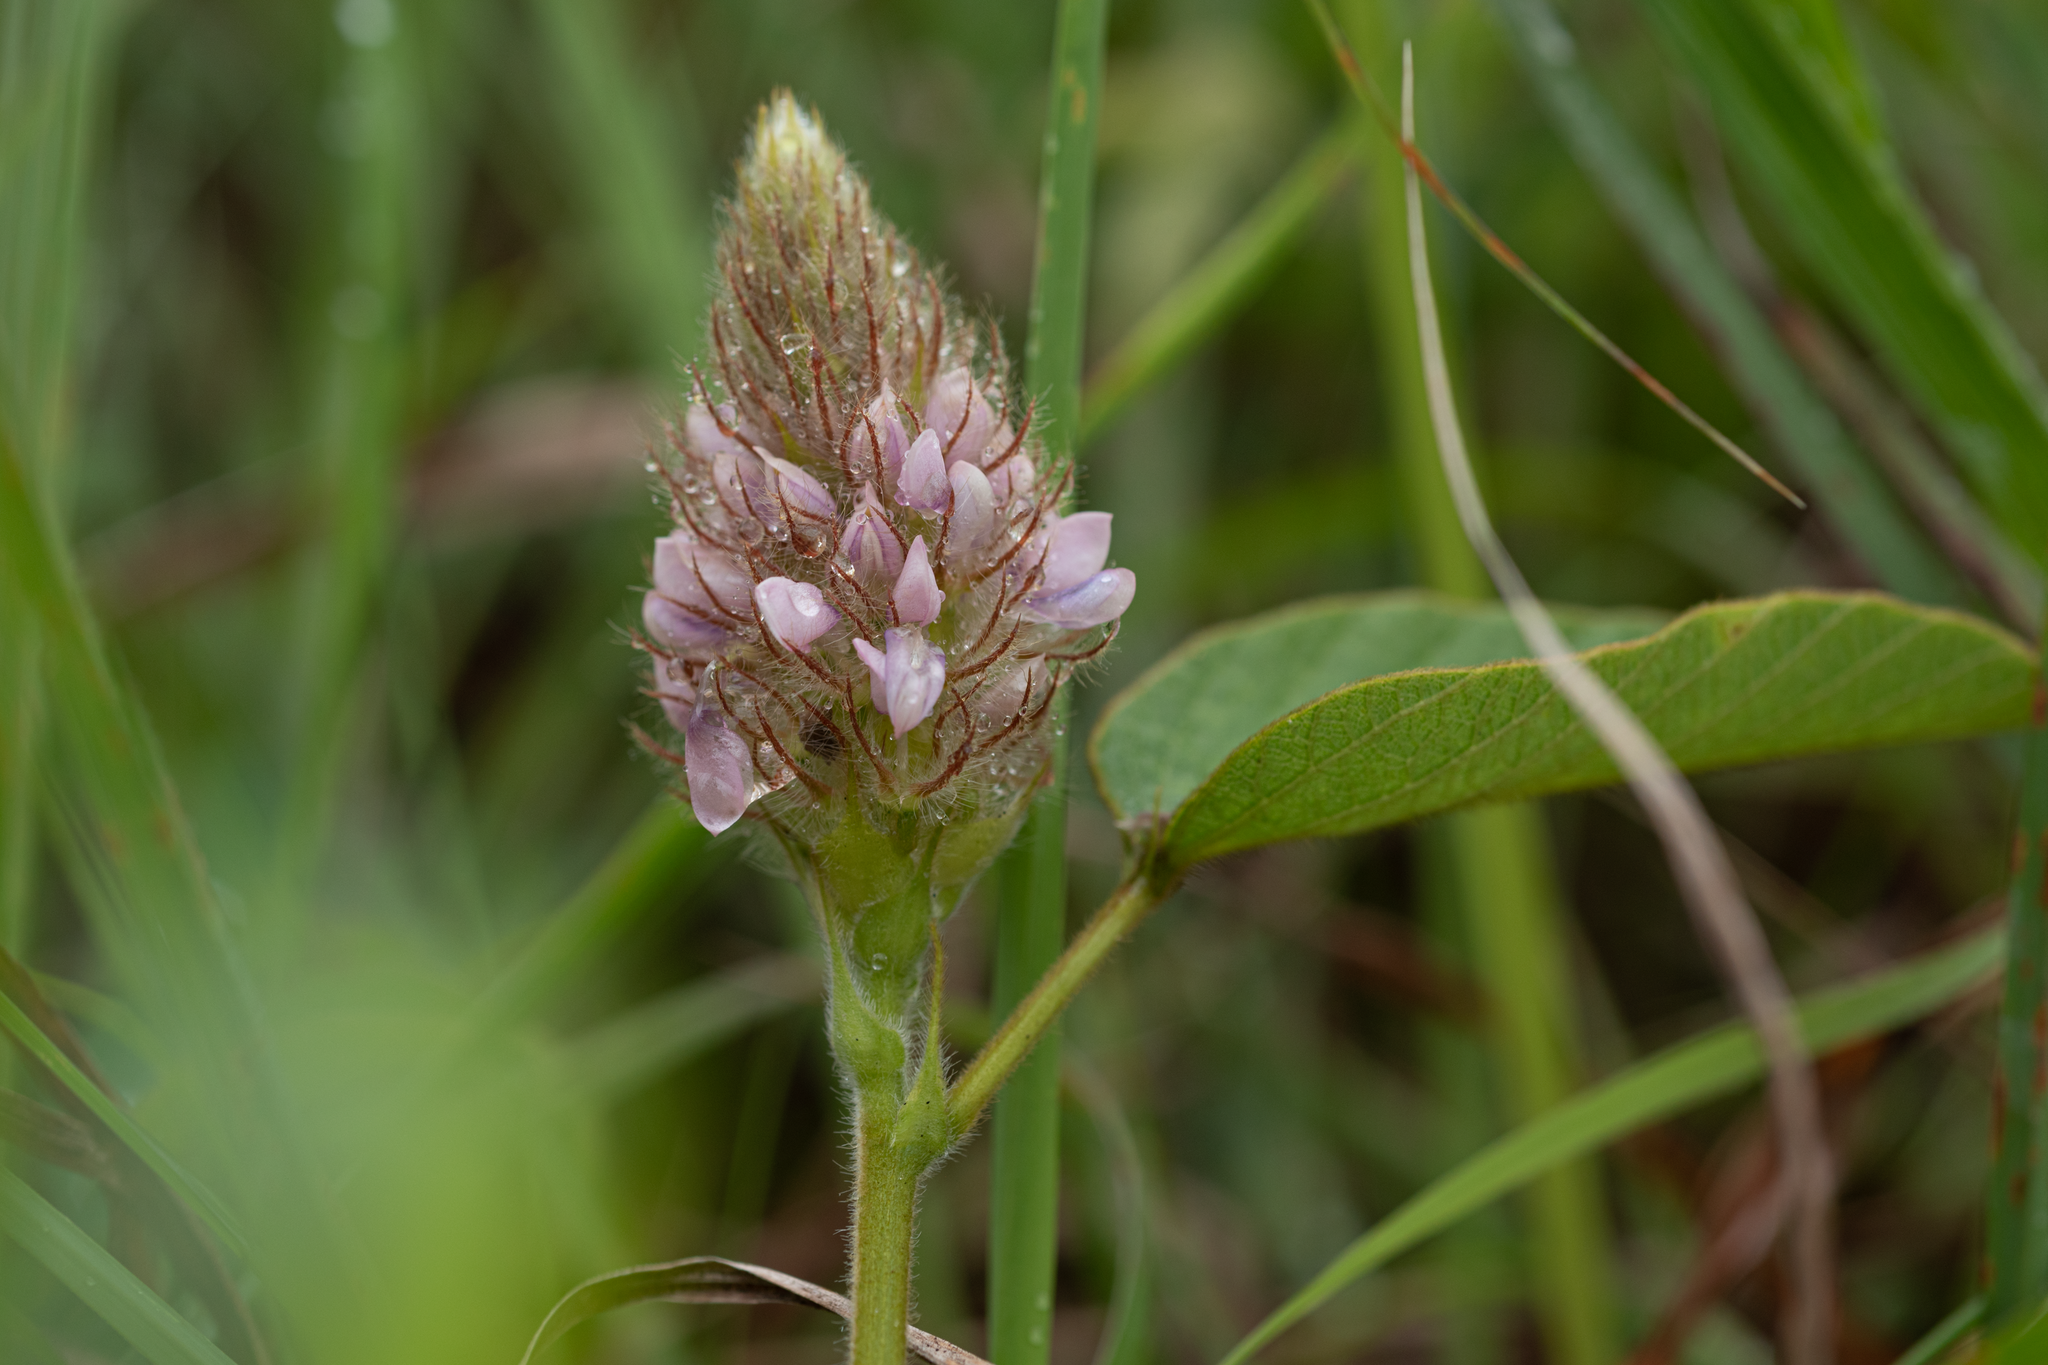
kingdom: Plantae
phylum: Tracheophyta
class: Magnoliopsida
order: Fabales
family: Fabaceae
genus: Uraria
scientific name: Uraria lagopodioides
